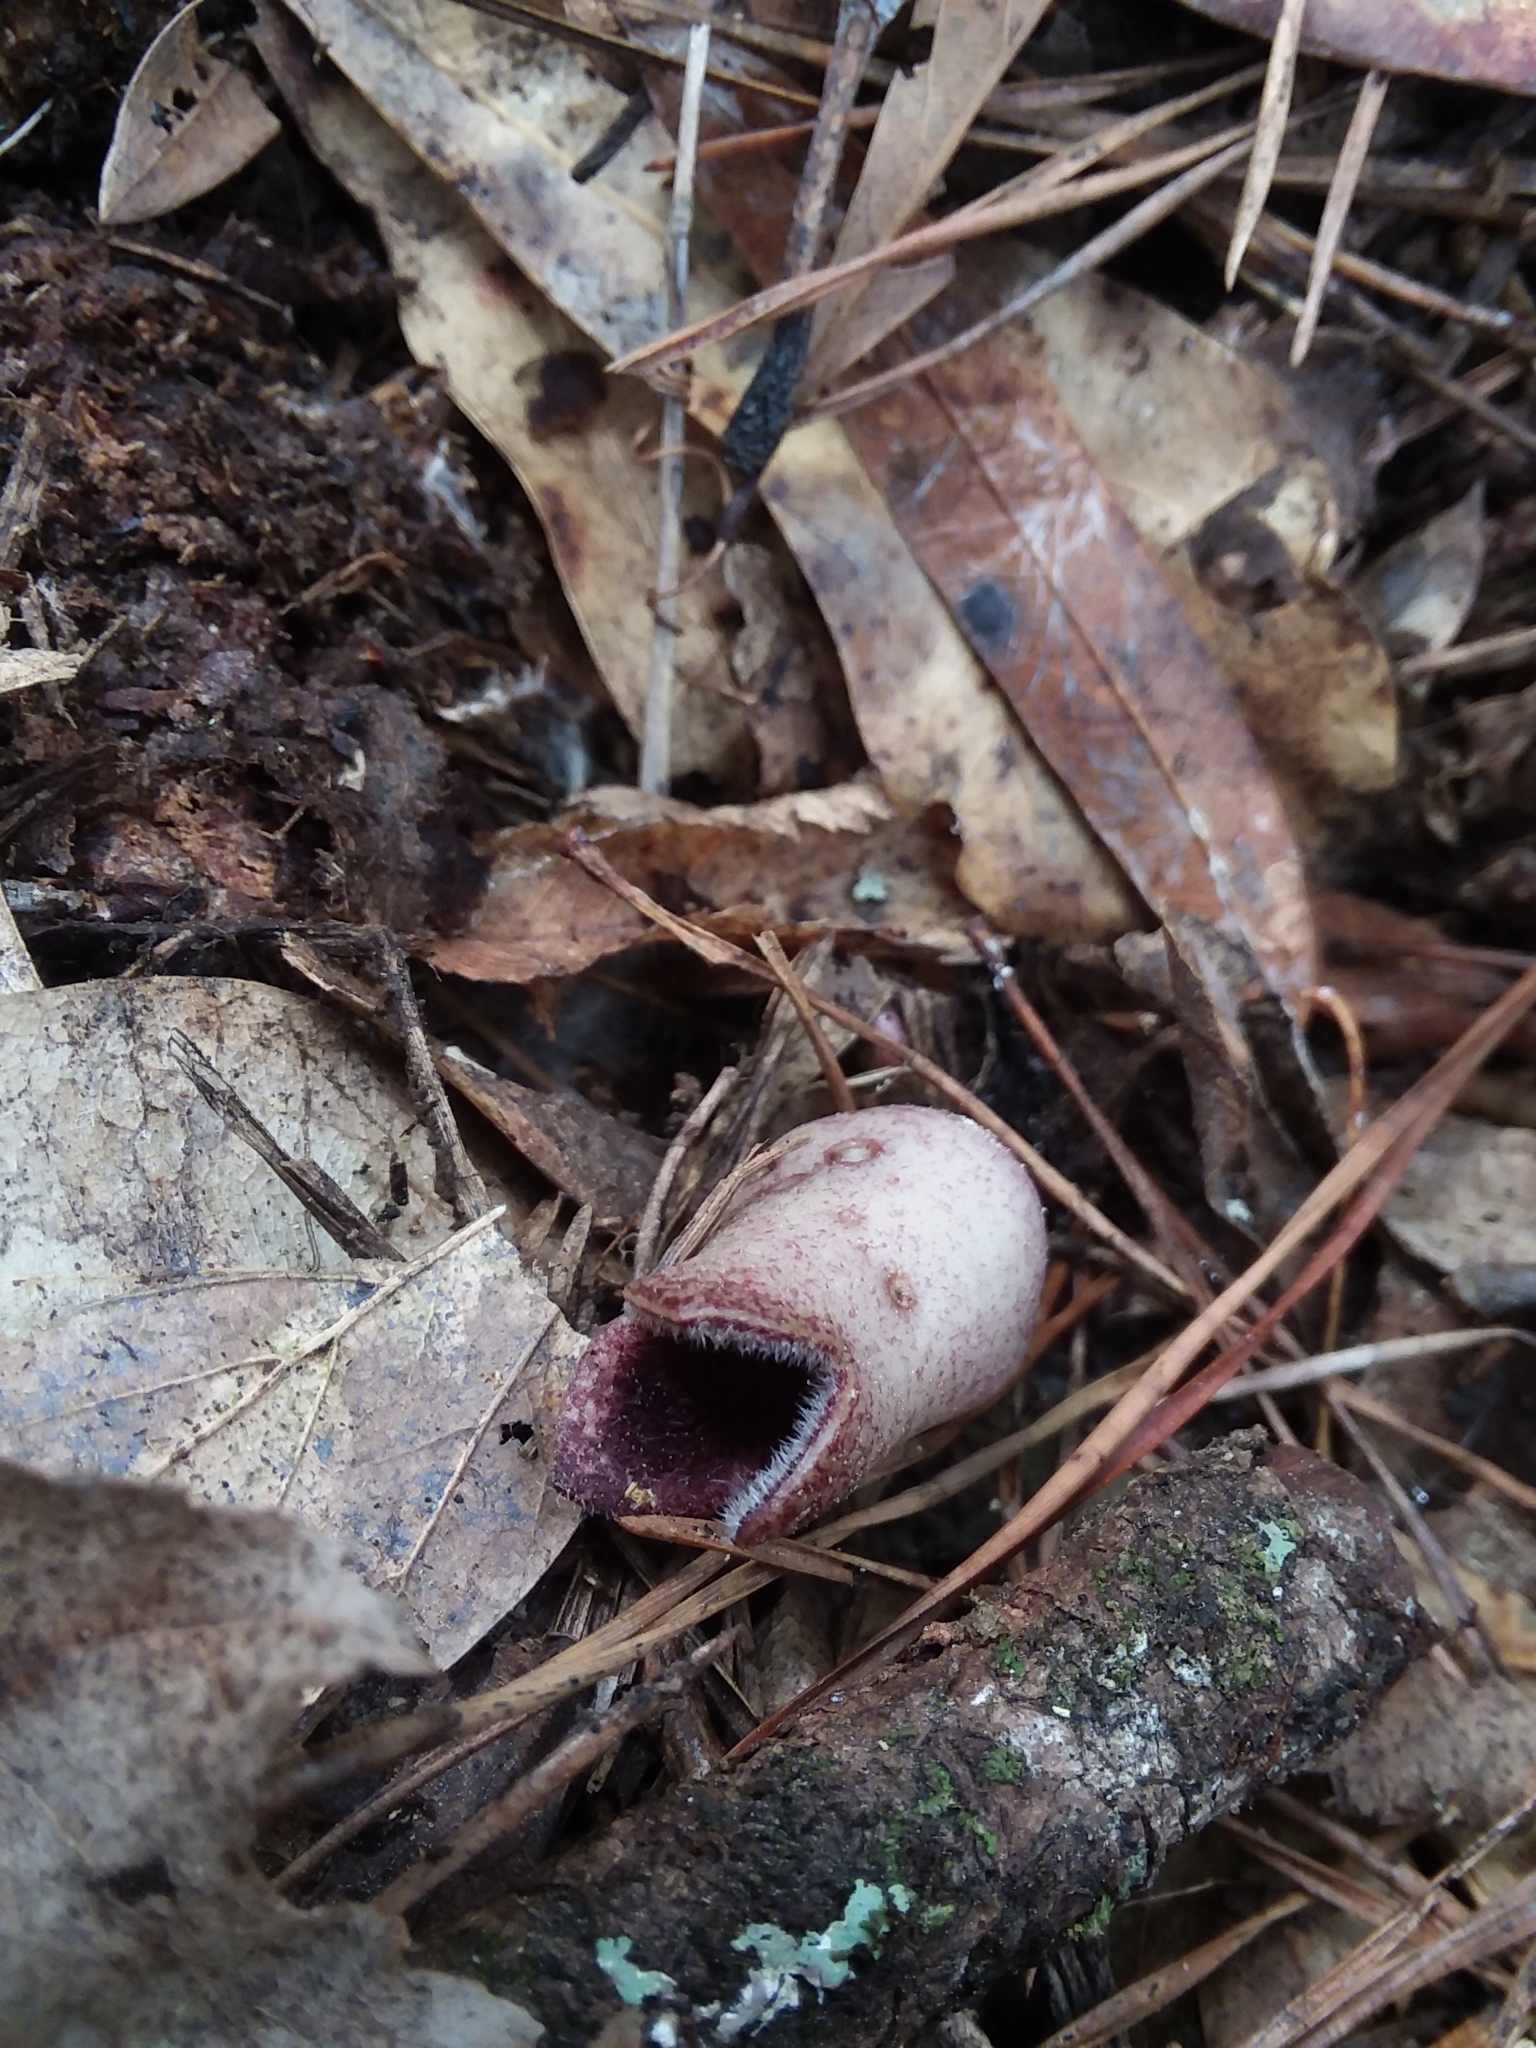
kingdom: Plantae
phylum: Tracheophyta
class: Magnoliopsida
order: Piperales
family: Aristolochiaceae
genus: Hexastylis
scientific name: Hexastylis arifolia
